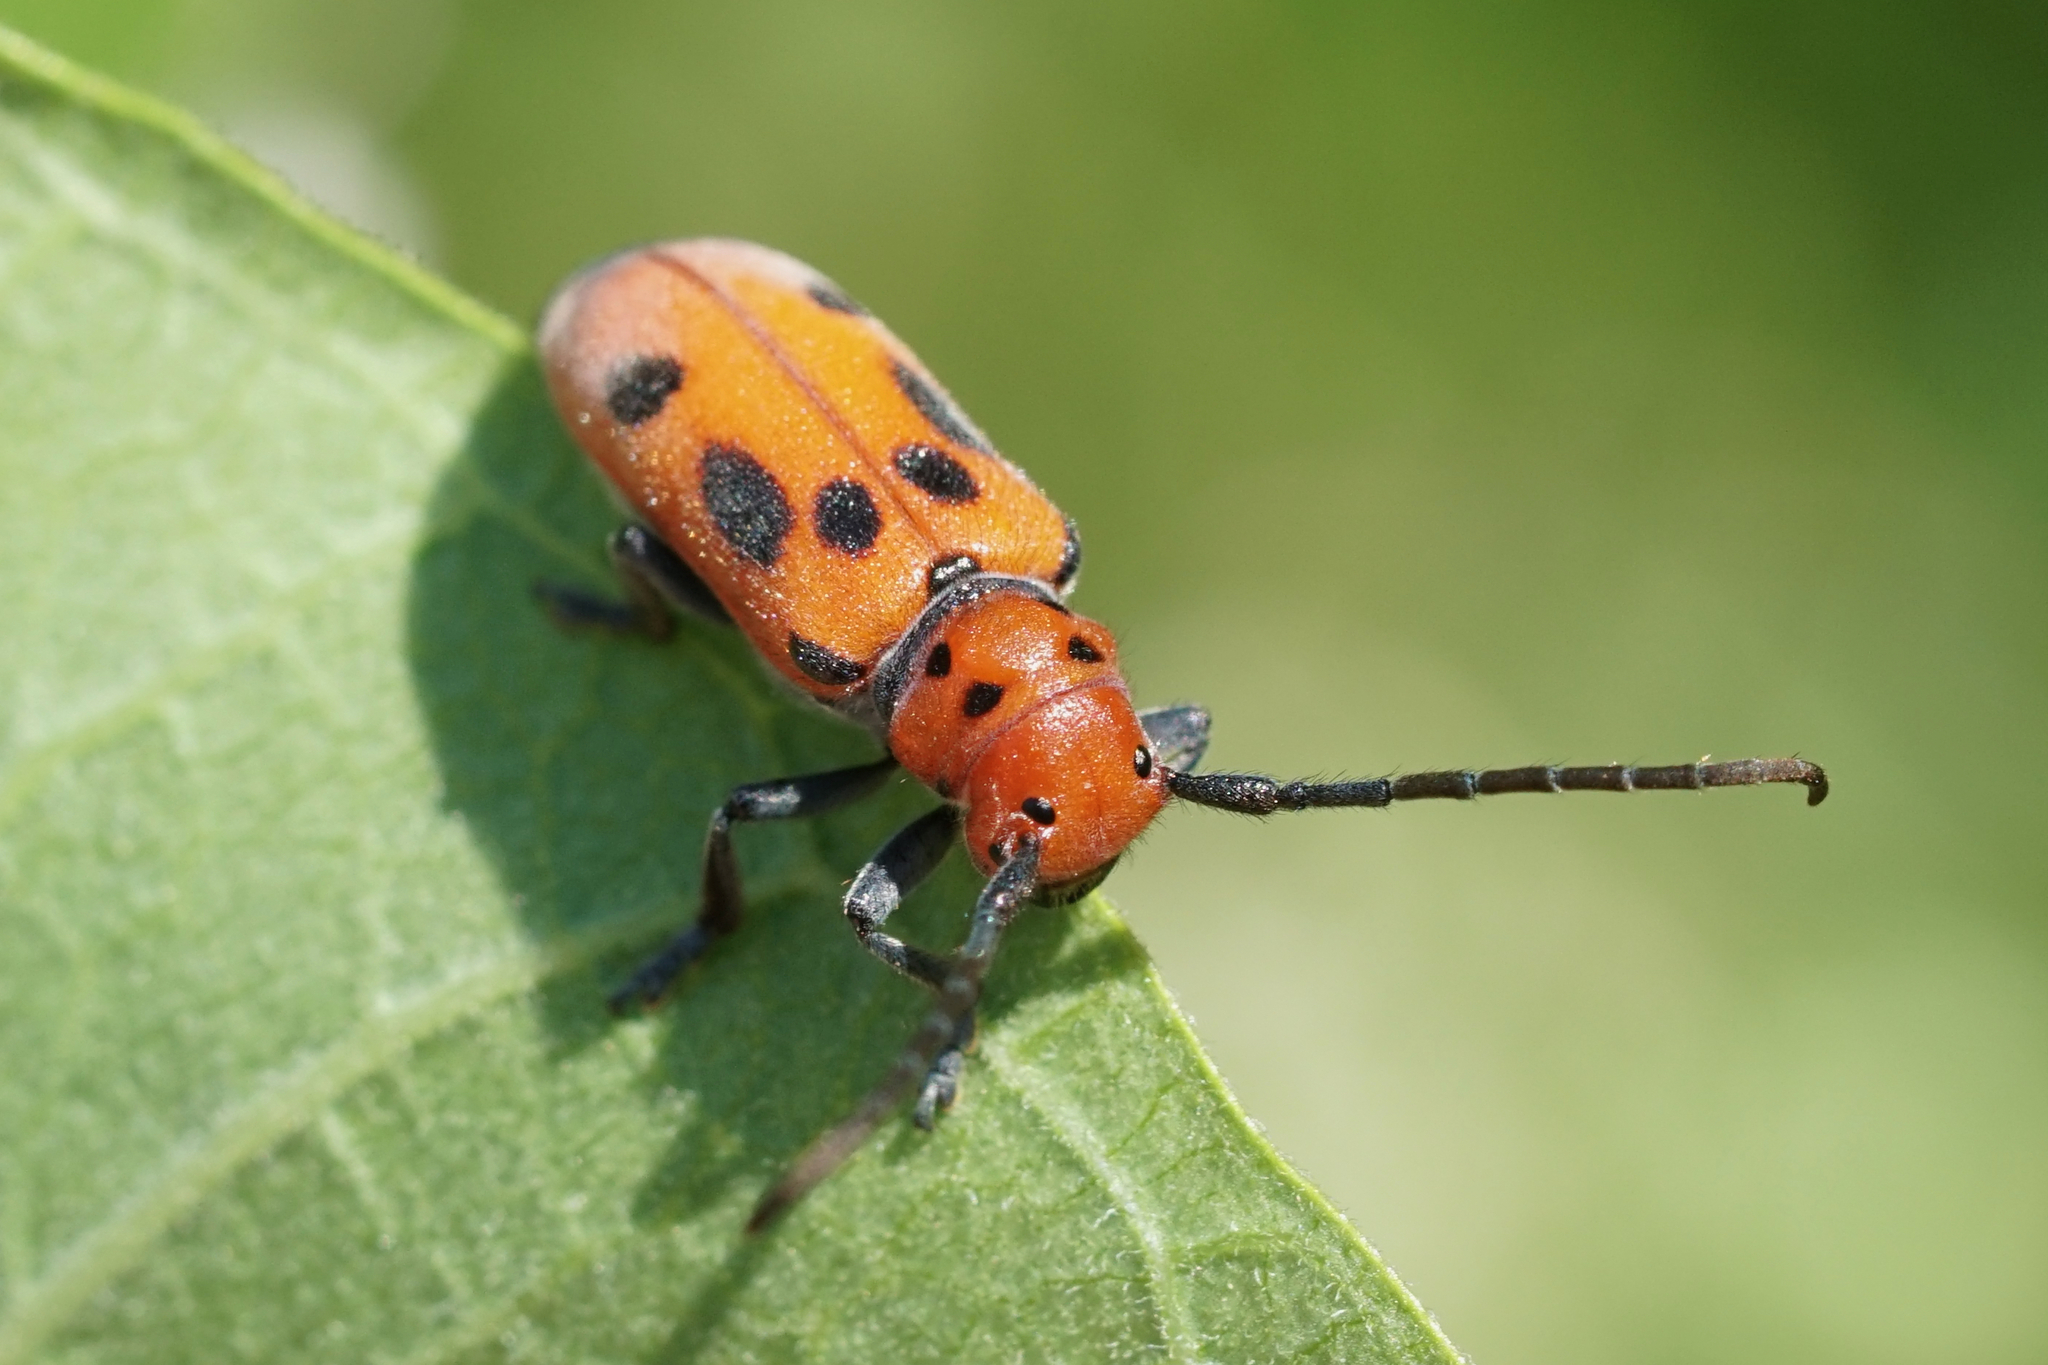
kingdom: Animalia
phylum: Arthropoda
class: Insecta
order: Coleoptera
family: Cerambycidae
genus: Tetraopes
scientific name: Tetraopes tetrophthalmus
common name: Red milkweed beetle
